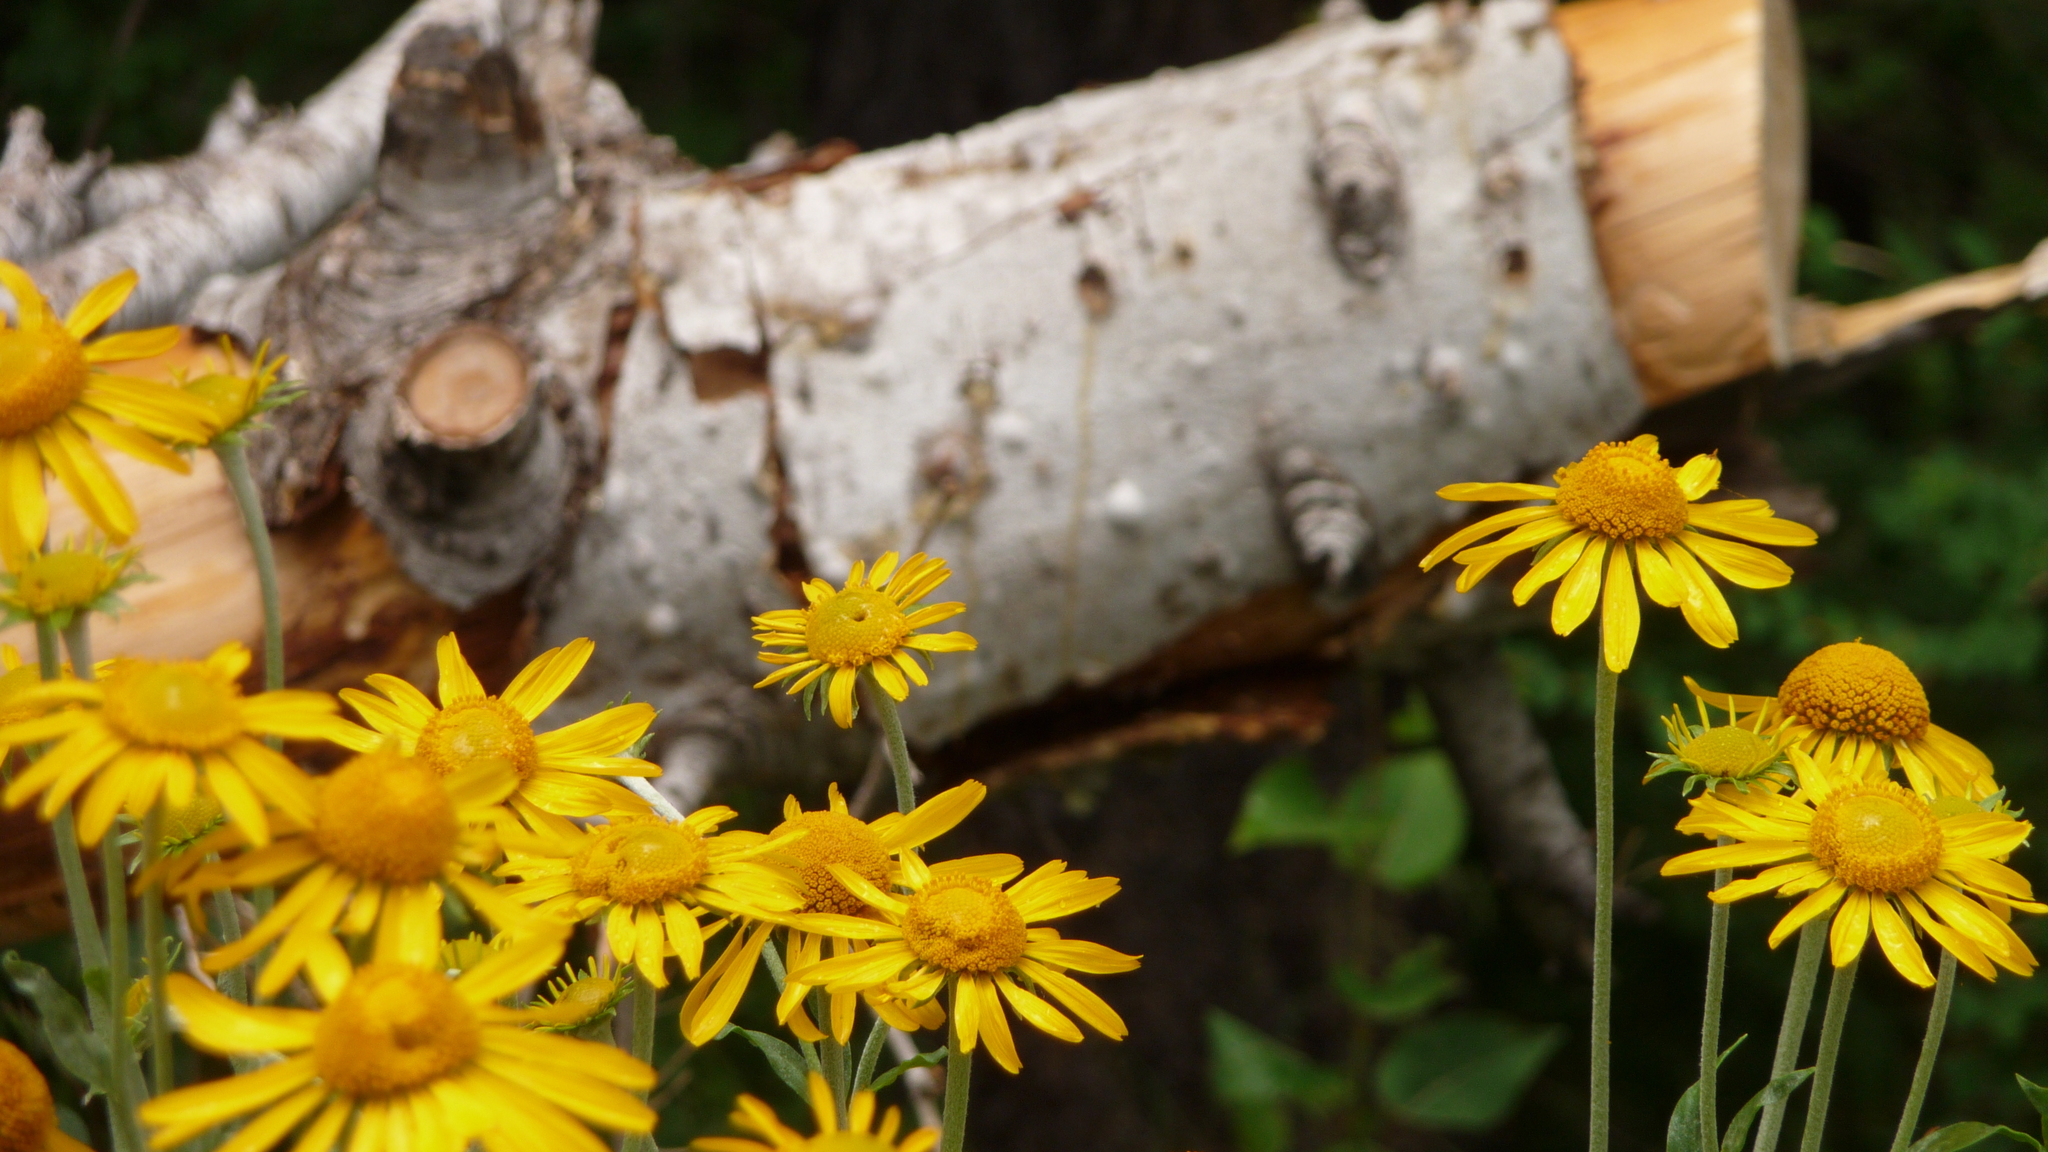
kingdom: Plantae
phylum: Tracheophyta
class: Magnoliopsida
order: Asterales
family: Asteraceae
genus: Hymenoxys
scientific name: Hymenoxys hoopesii
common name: Orange-sneezeweed
